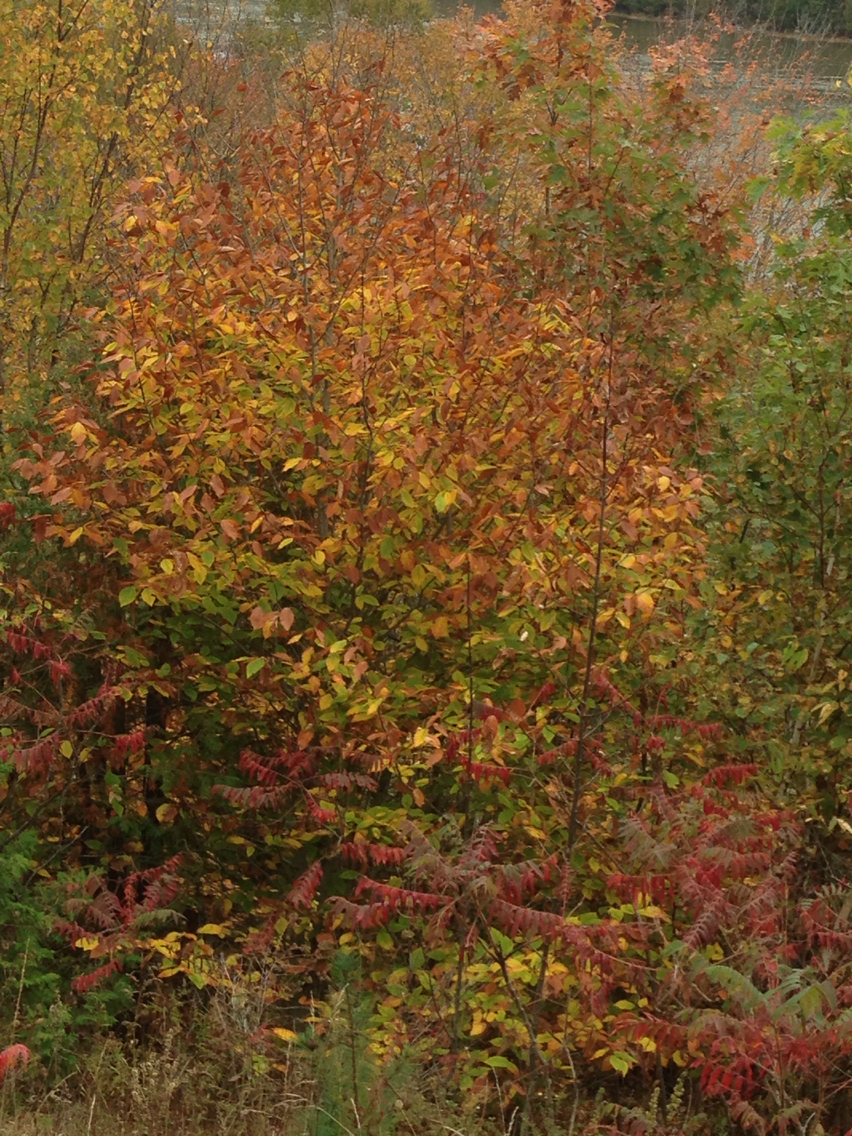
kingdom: Plantae
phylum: Tracheophyta
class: Magnoliopsida
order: Fagales
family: Fagaceae
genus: Fagus
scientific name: Fagus grandifolia
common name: American beech
